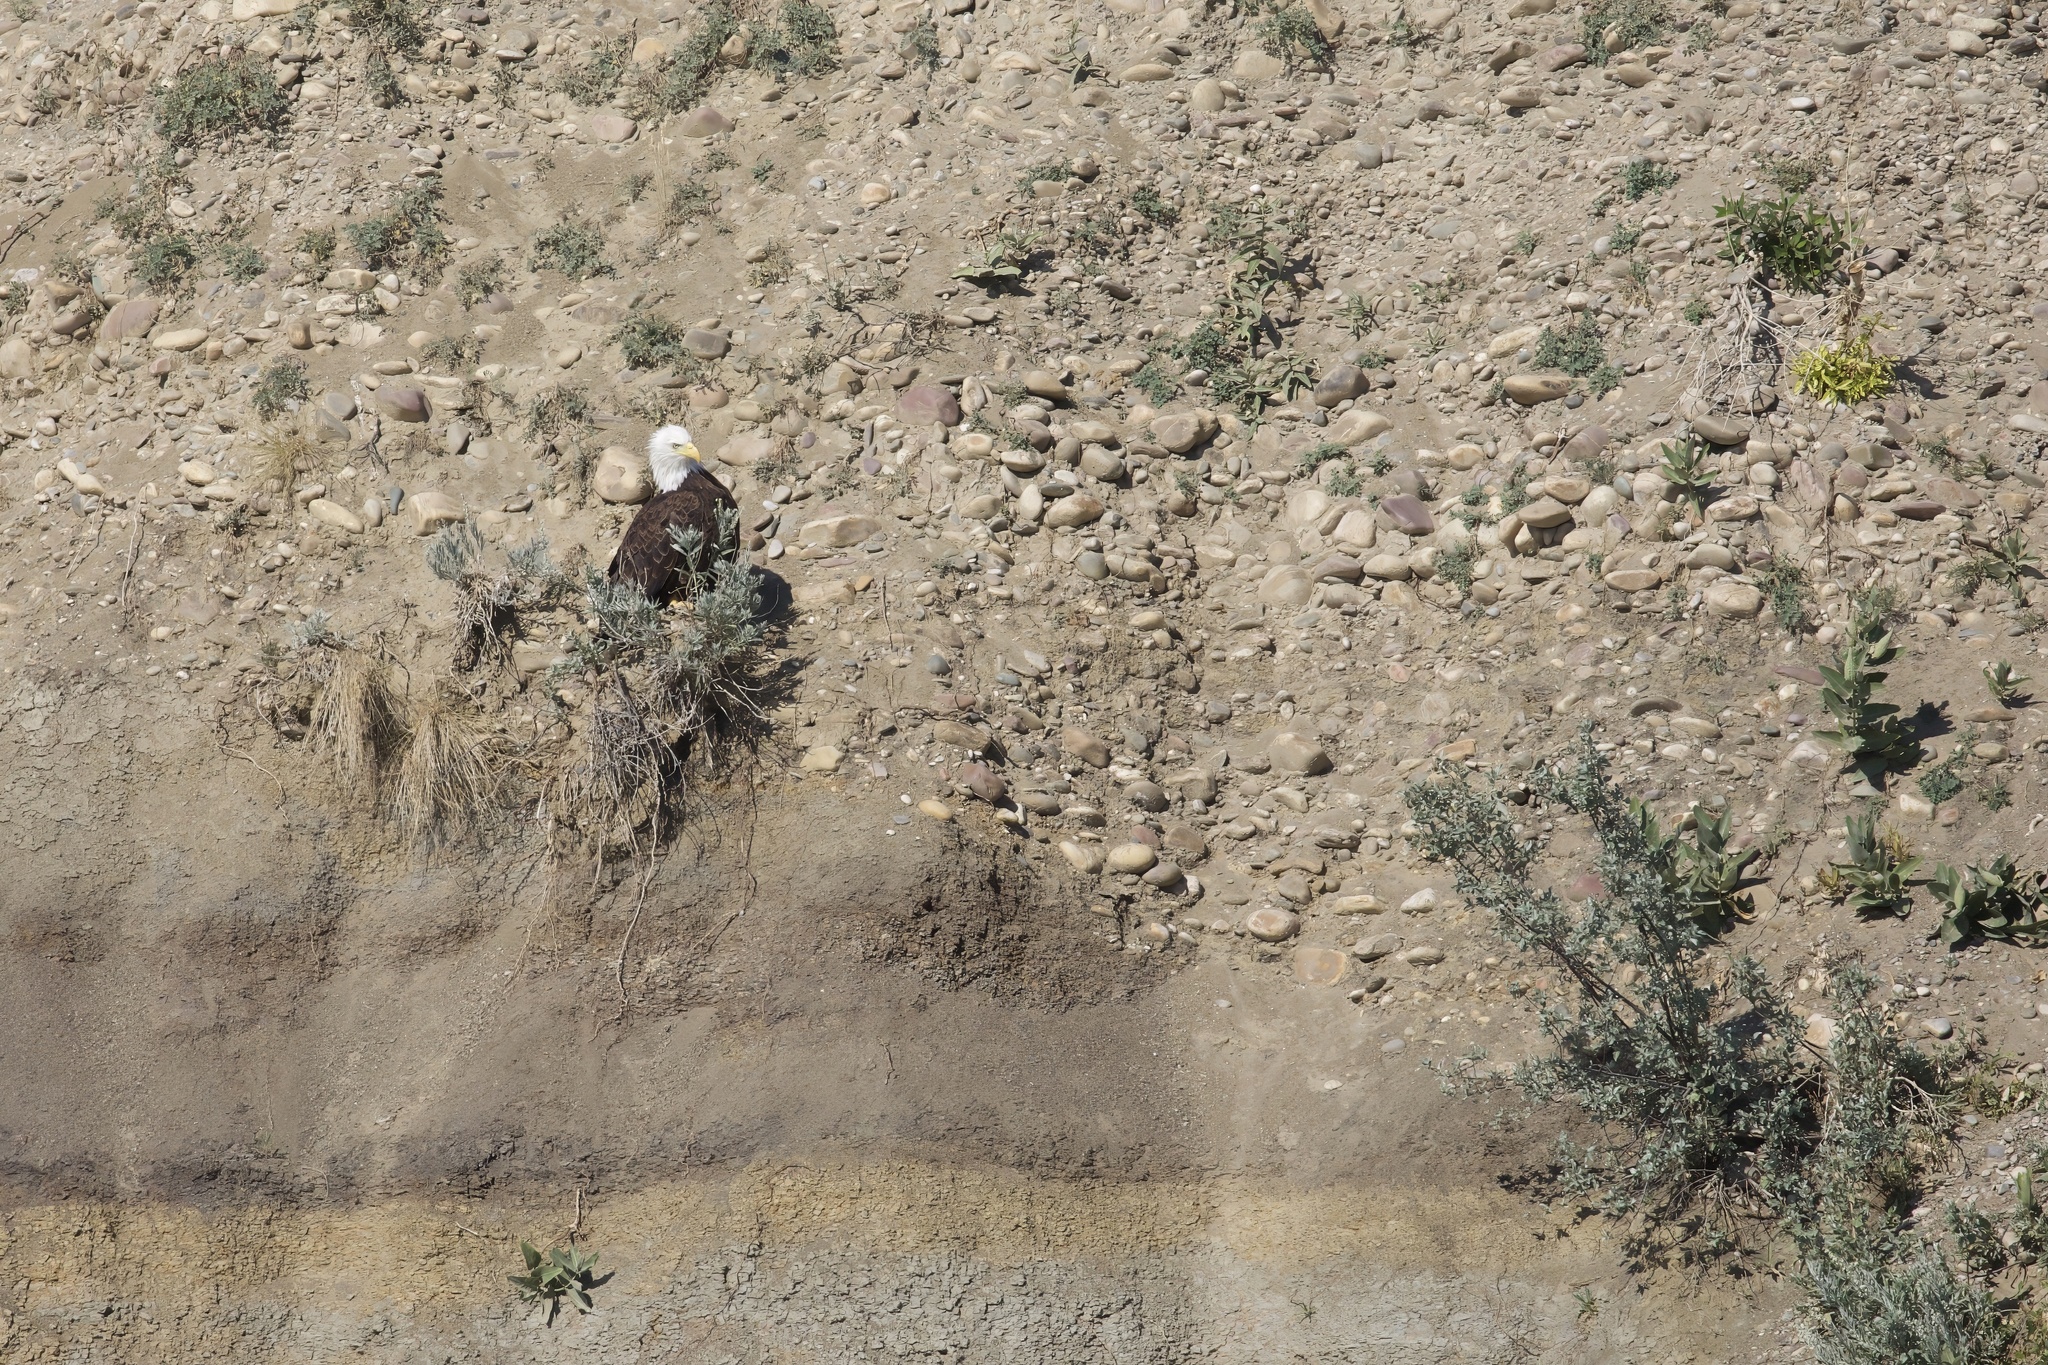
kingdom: Animalia
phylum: Chordata
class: Aves
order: Accipitriformes
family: Accipitridae
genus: Haliaeetus
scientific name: Haliaeetus leucocephalus
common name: Bald eagle
